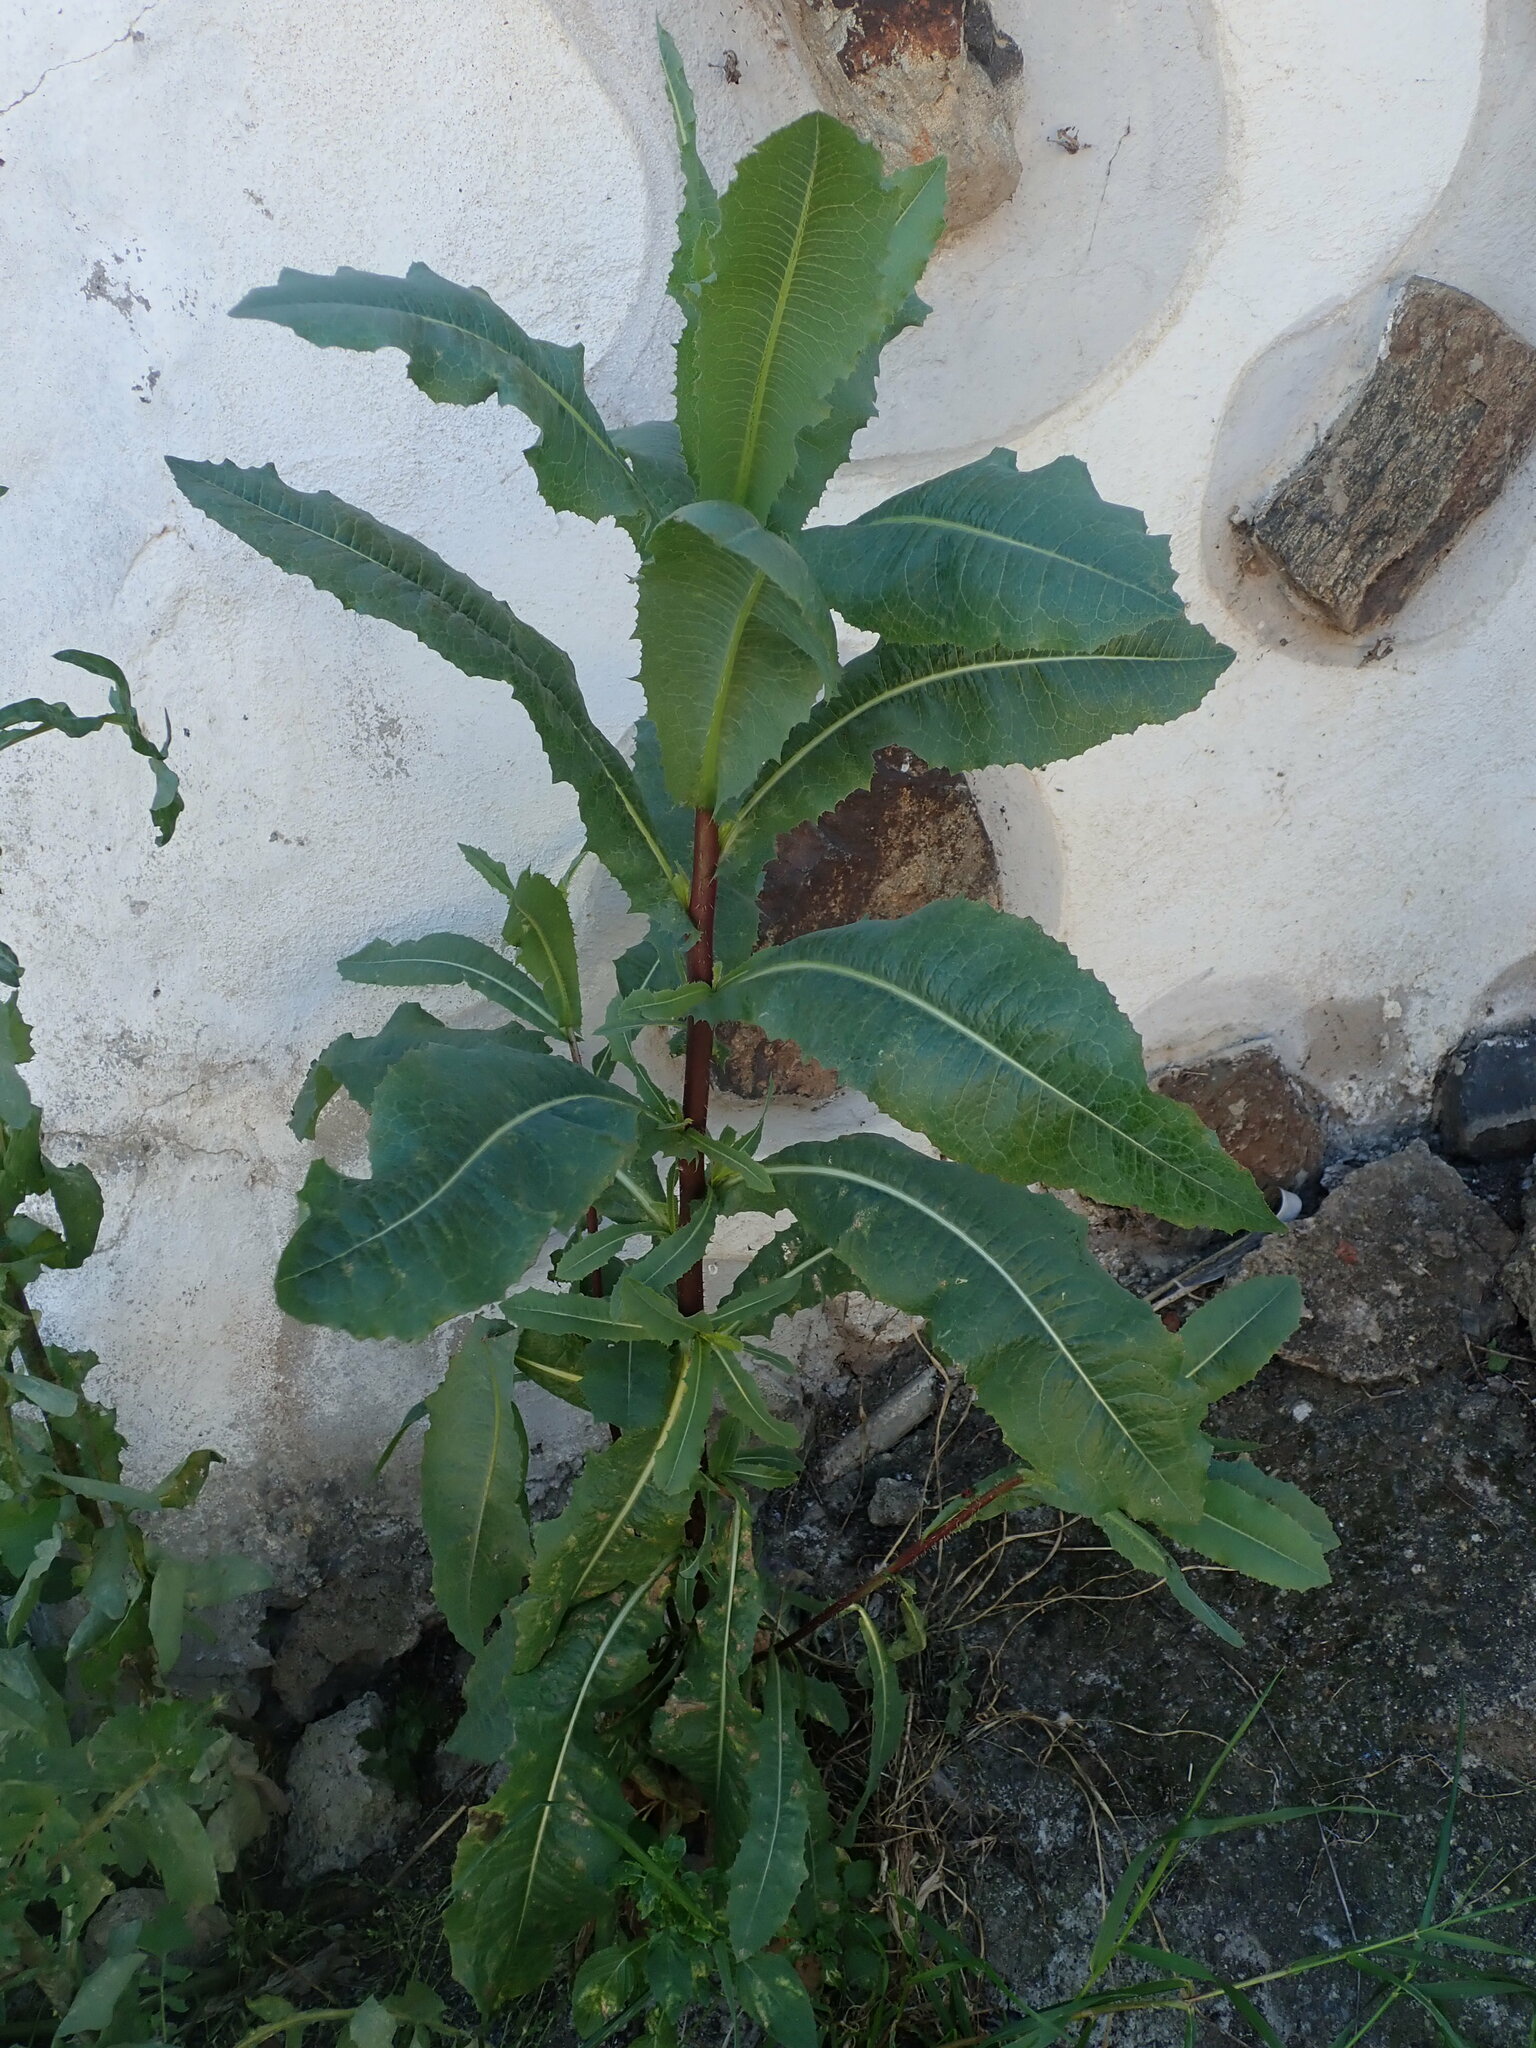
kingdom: Plantae
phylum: Tracheophyta
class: Magnoliopsida
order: Asterales
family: Asteraceae
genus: Lactuca
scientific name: Lactuca serriola
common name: Prickly lettuce
